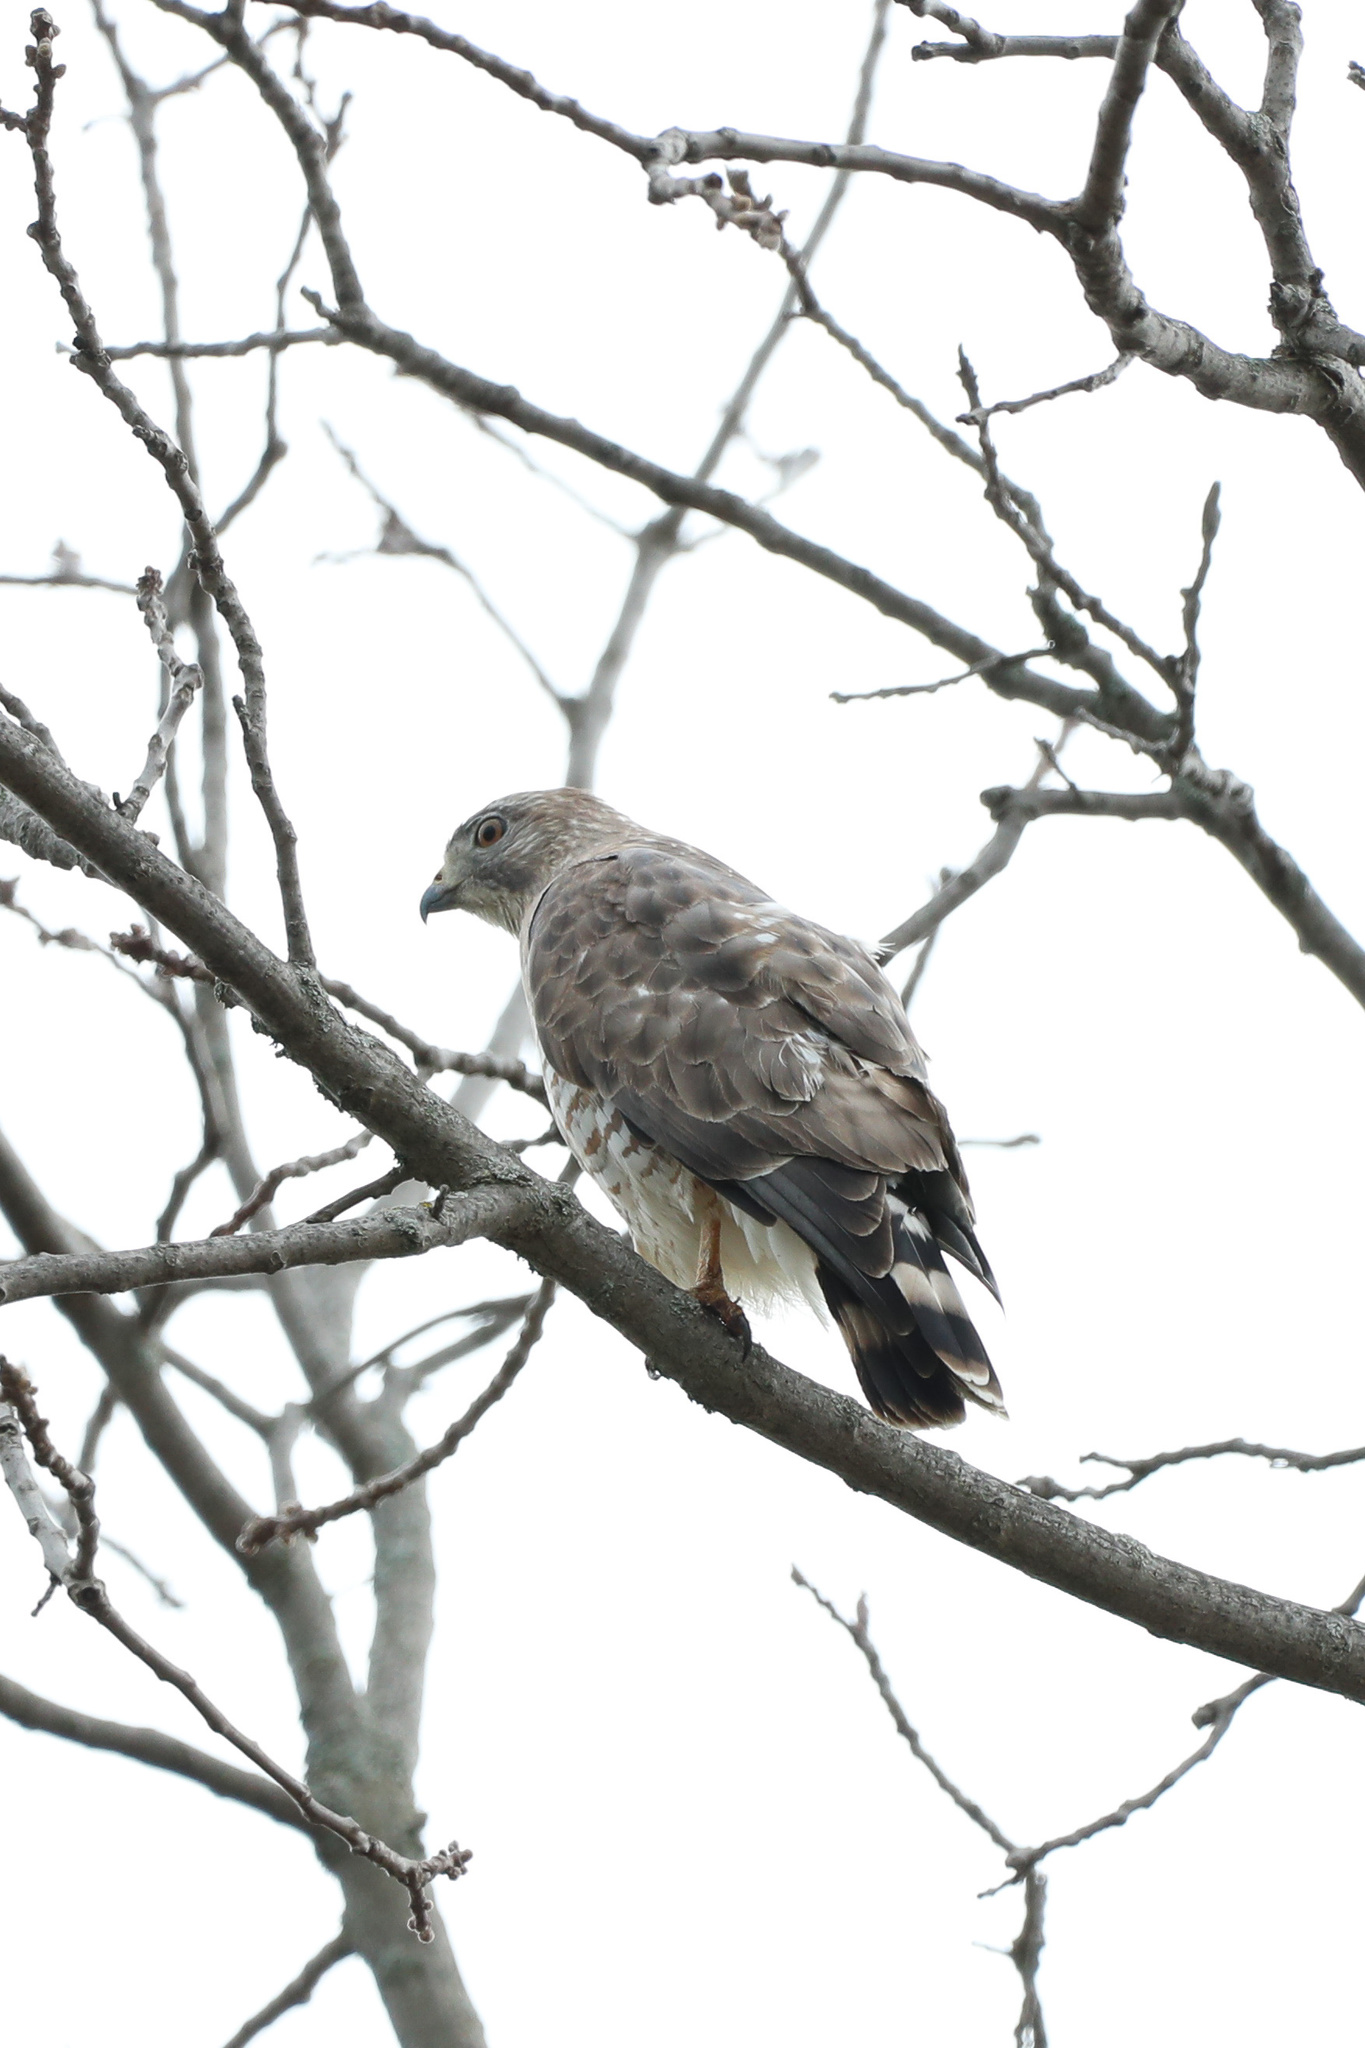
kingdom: Animalia
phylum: Chordata
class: Aves
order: Accipitriformes
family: Accipitridae
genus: Buteo
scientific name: Buteo platypterus
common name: Broad-winged hawk
